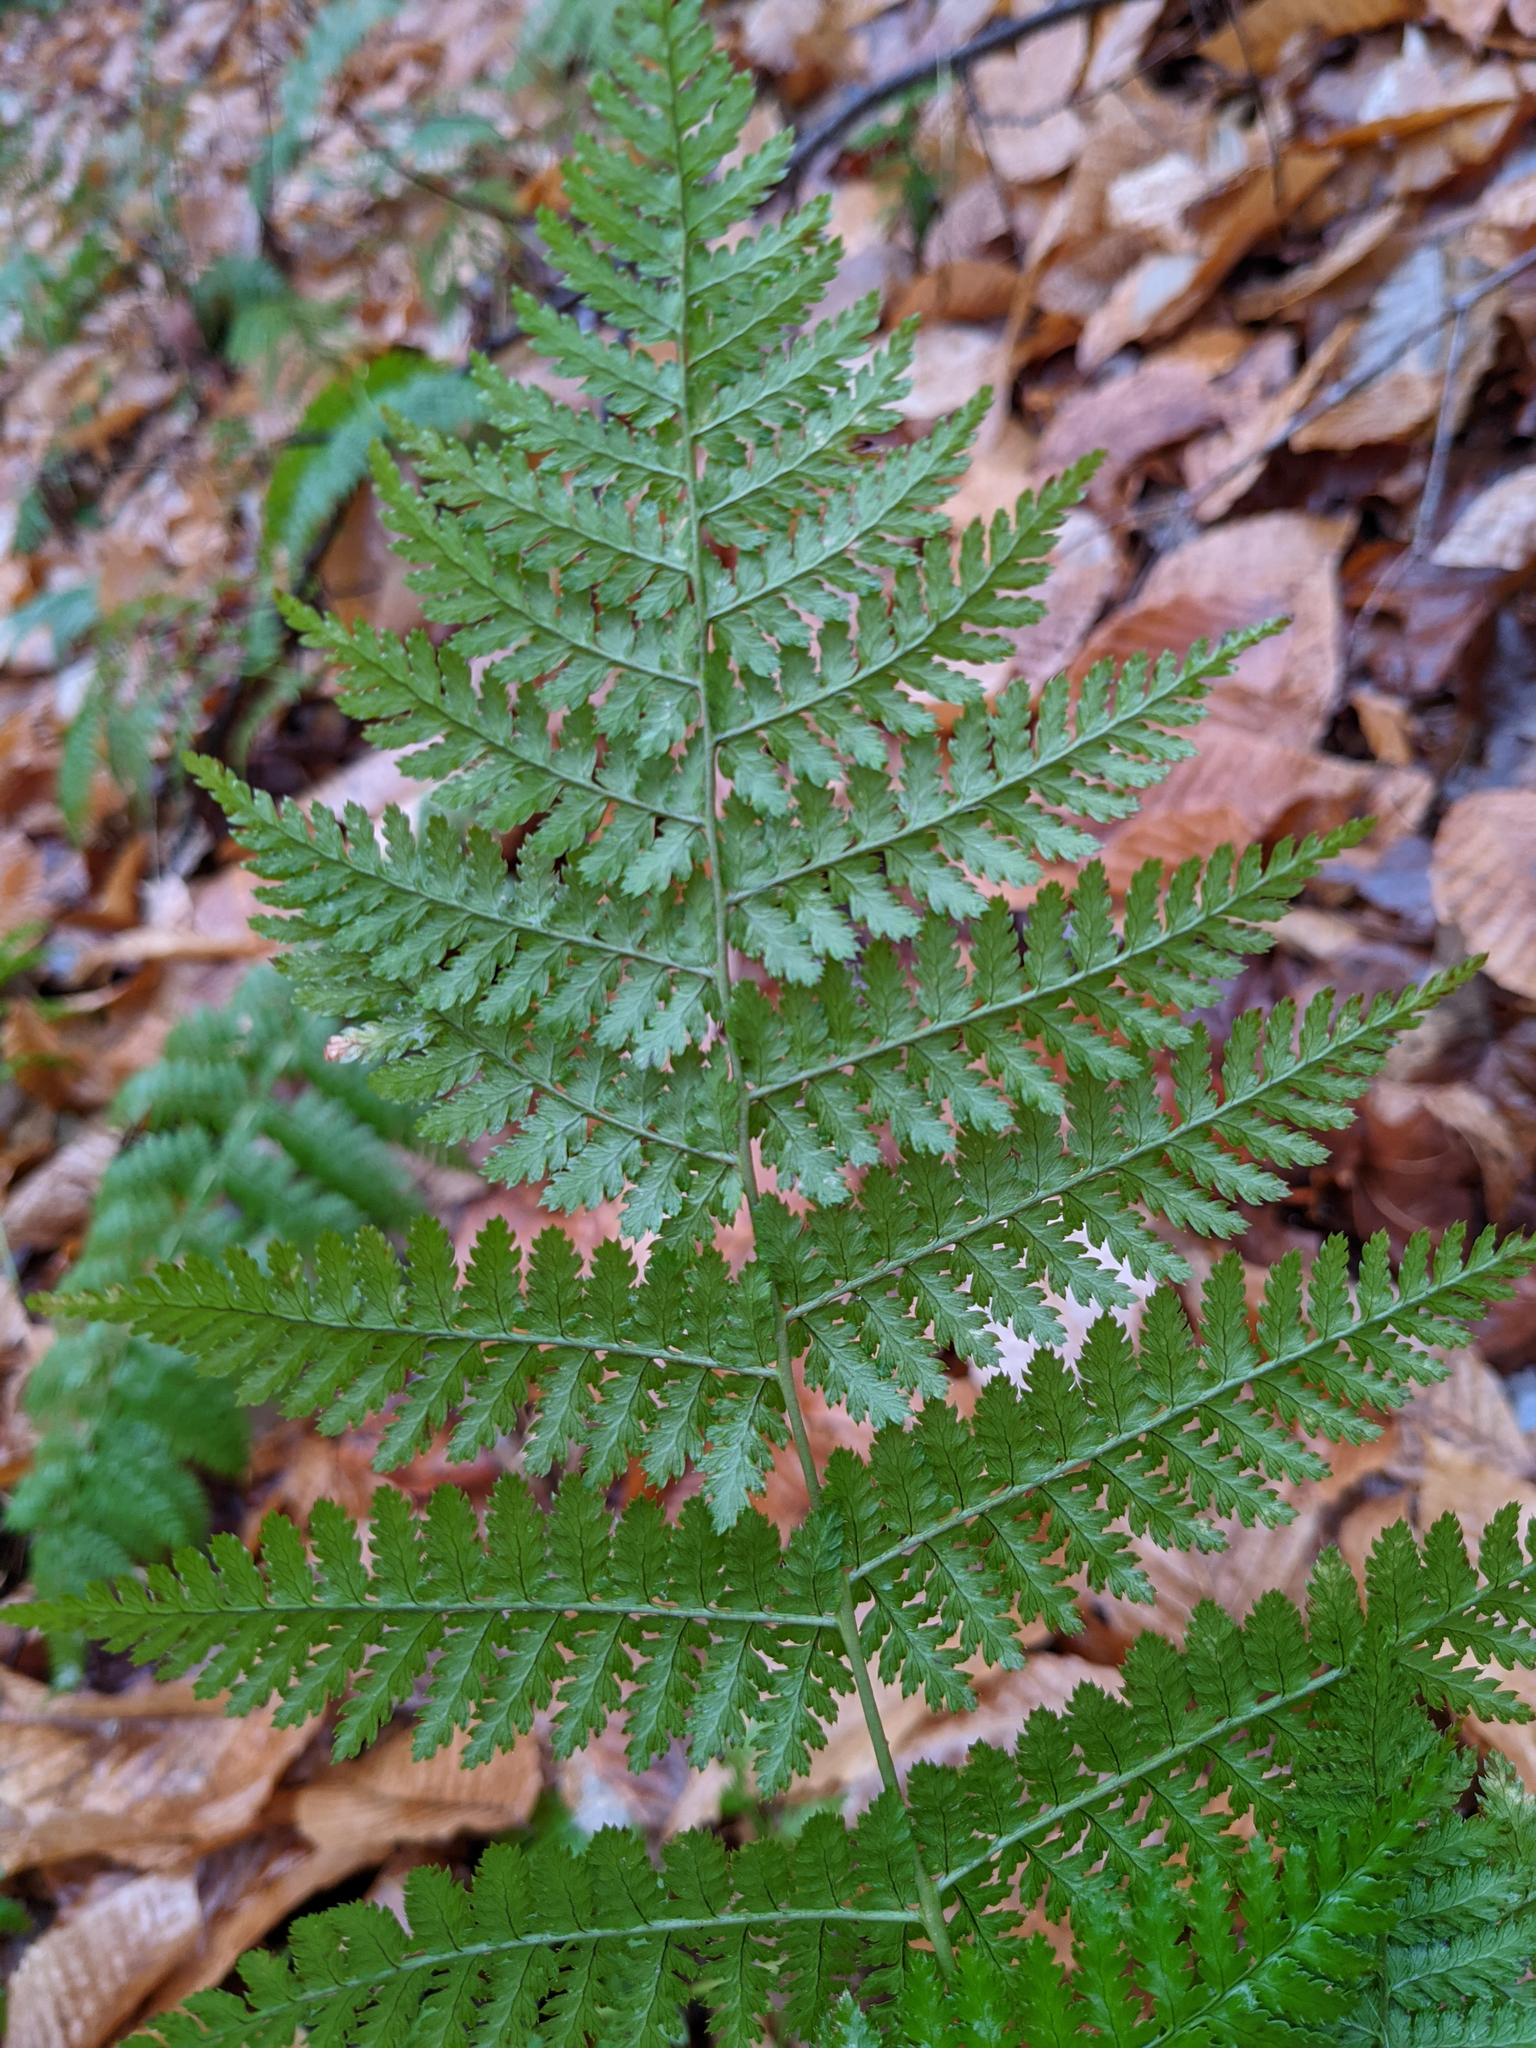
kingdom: Plantae
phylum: Tracheophyta
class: Polypodiopsida
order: Polypodiales
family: Dryopteridaceae
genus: Dryopteris
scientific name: Dryopteris intermedia
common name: Evergreen wood fern
